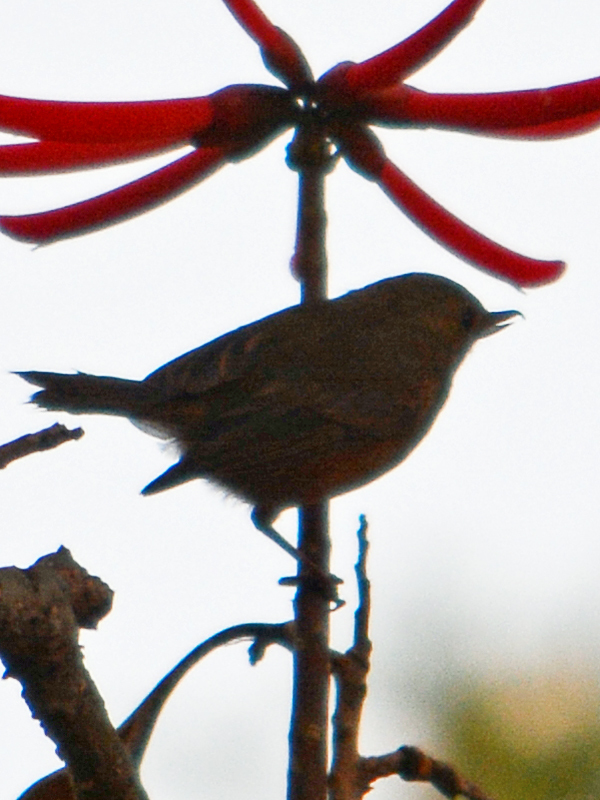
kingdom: Animalia
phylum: Chordata
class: Aves
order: Passeriformes
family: Thraupidae
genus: Diglossa
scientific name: Diglossa baritula
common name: Cinnamon-bellied flowerpiercer
